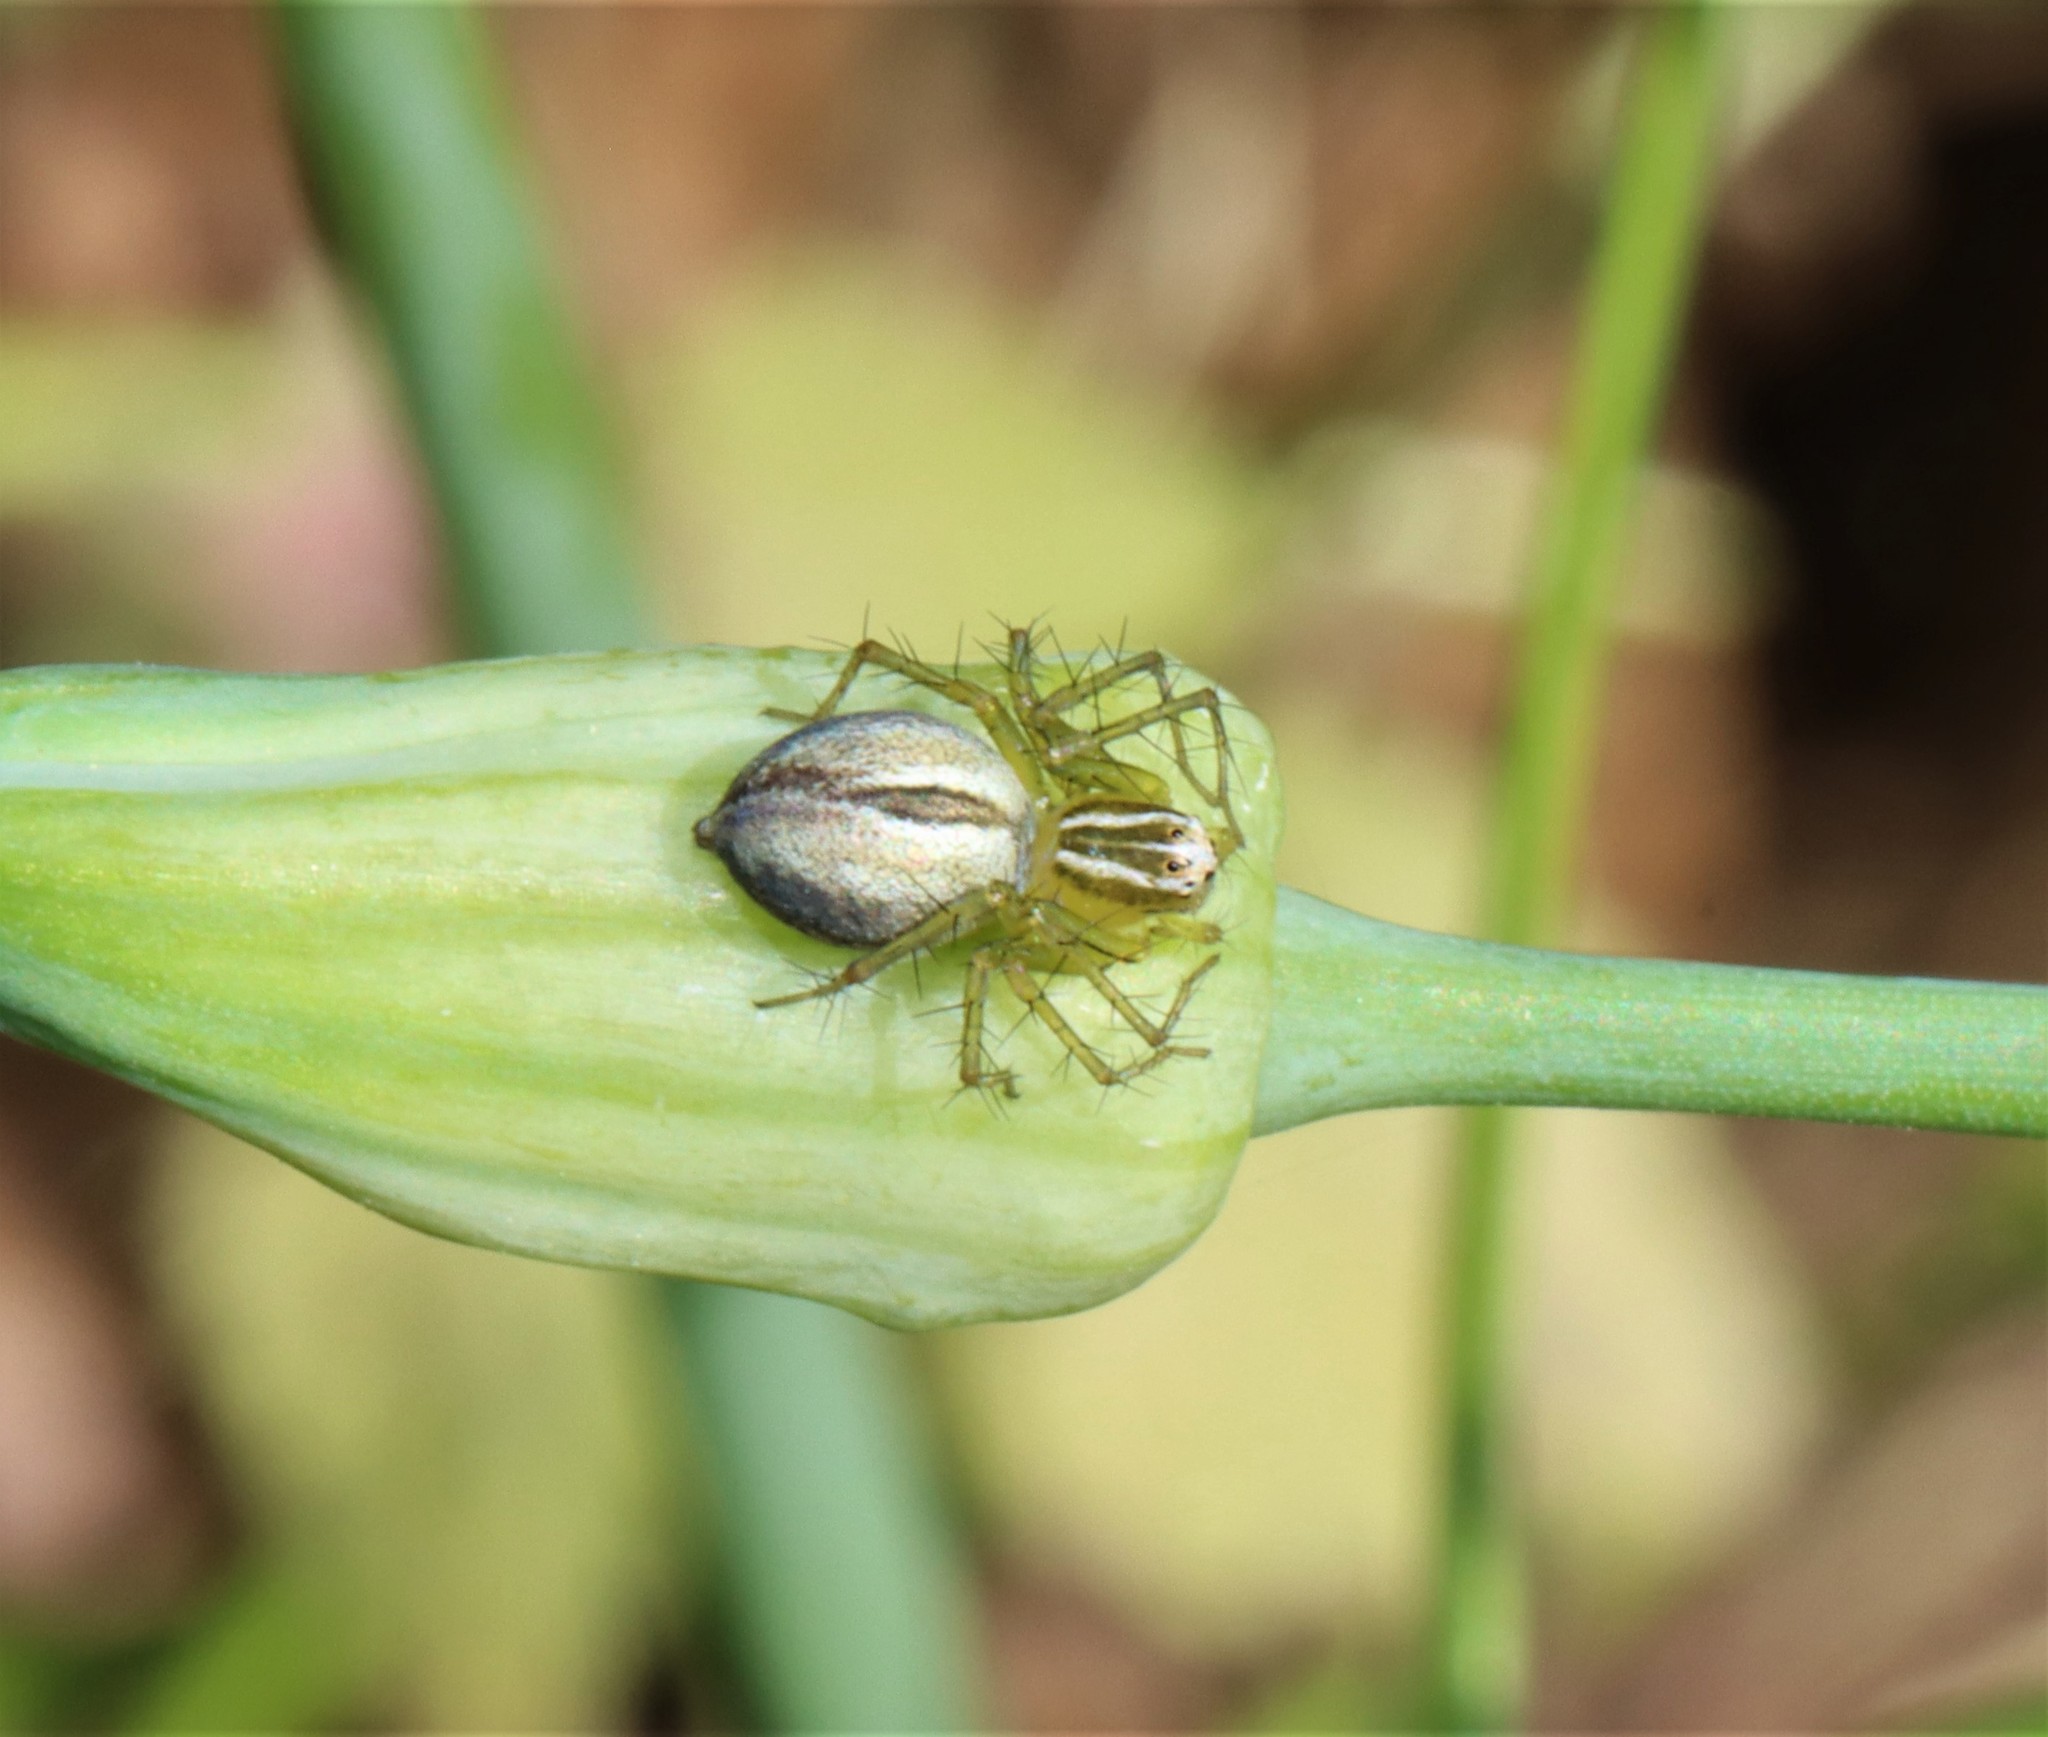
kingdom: Animalia
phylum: Arthropoda
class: Arachnida
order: Araneae
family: Oxyopidae
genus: Oxyopes
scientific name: Oxyopes salticus
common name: Lynx spiders
